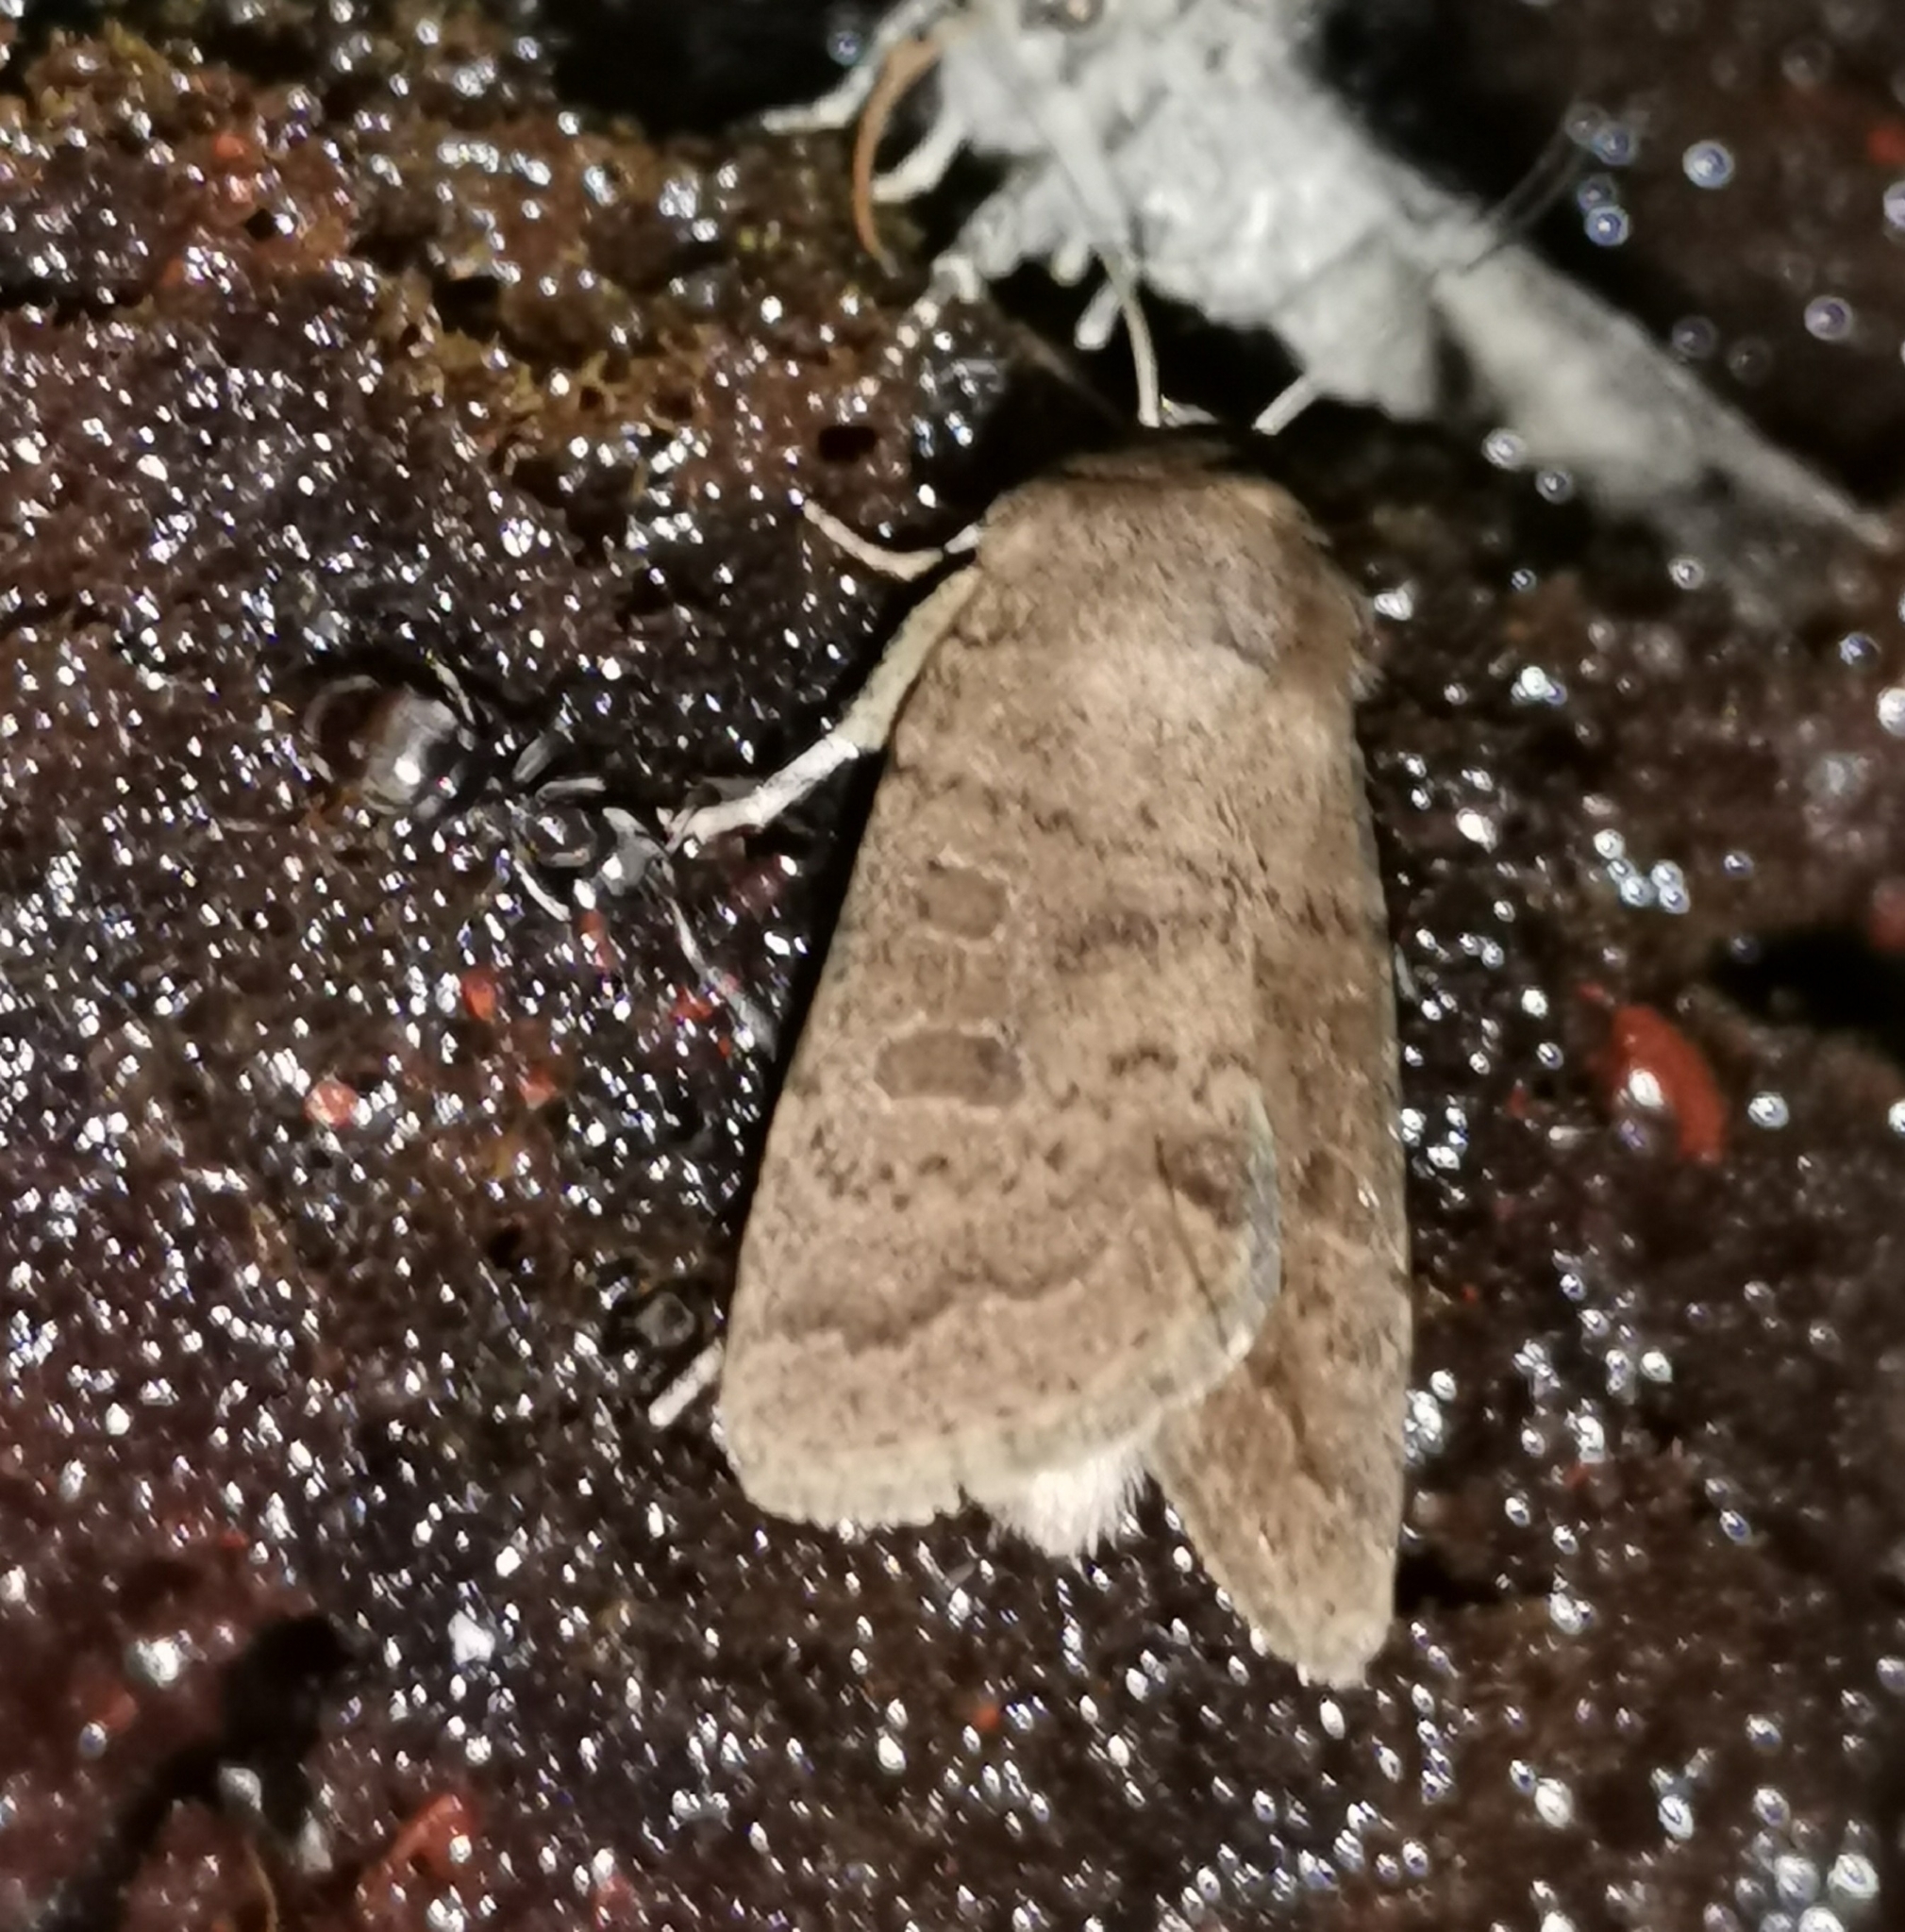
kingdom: Animalia
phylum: Arthropoda
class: Insecta
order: Lepidoptera
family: Noctuidae
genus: Hoplodrina
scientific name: Hoplodrina octogenaria
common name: Uncertain
